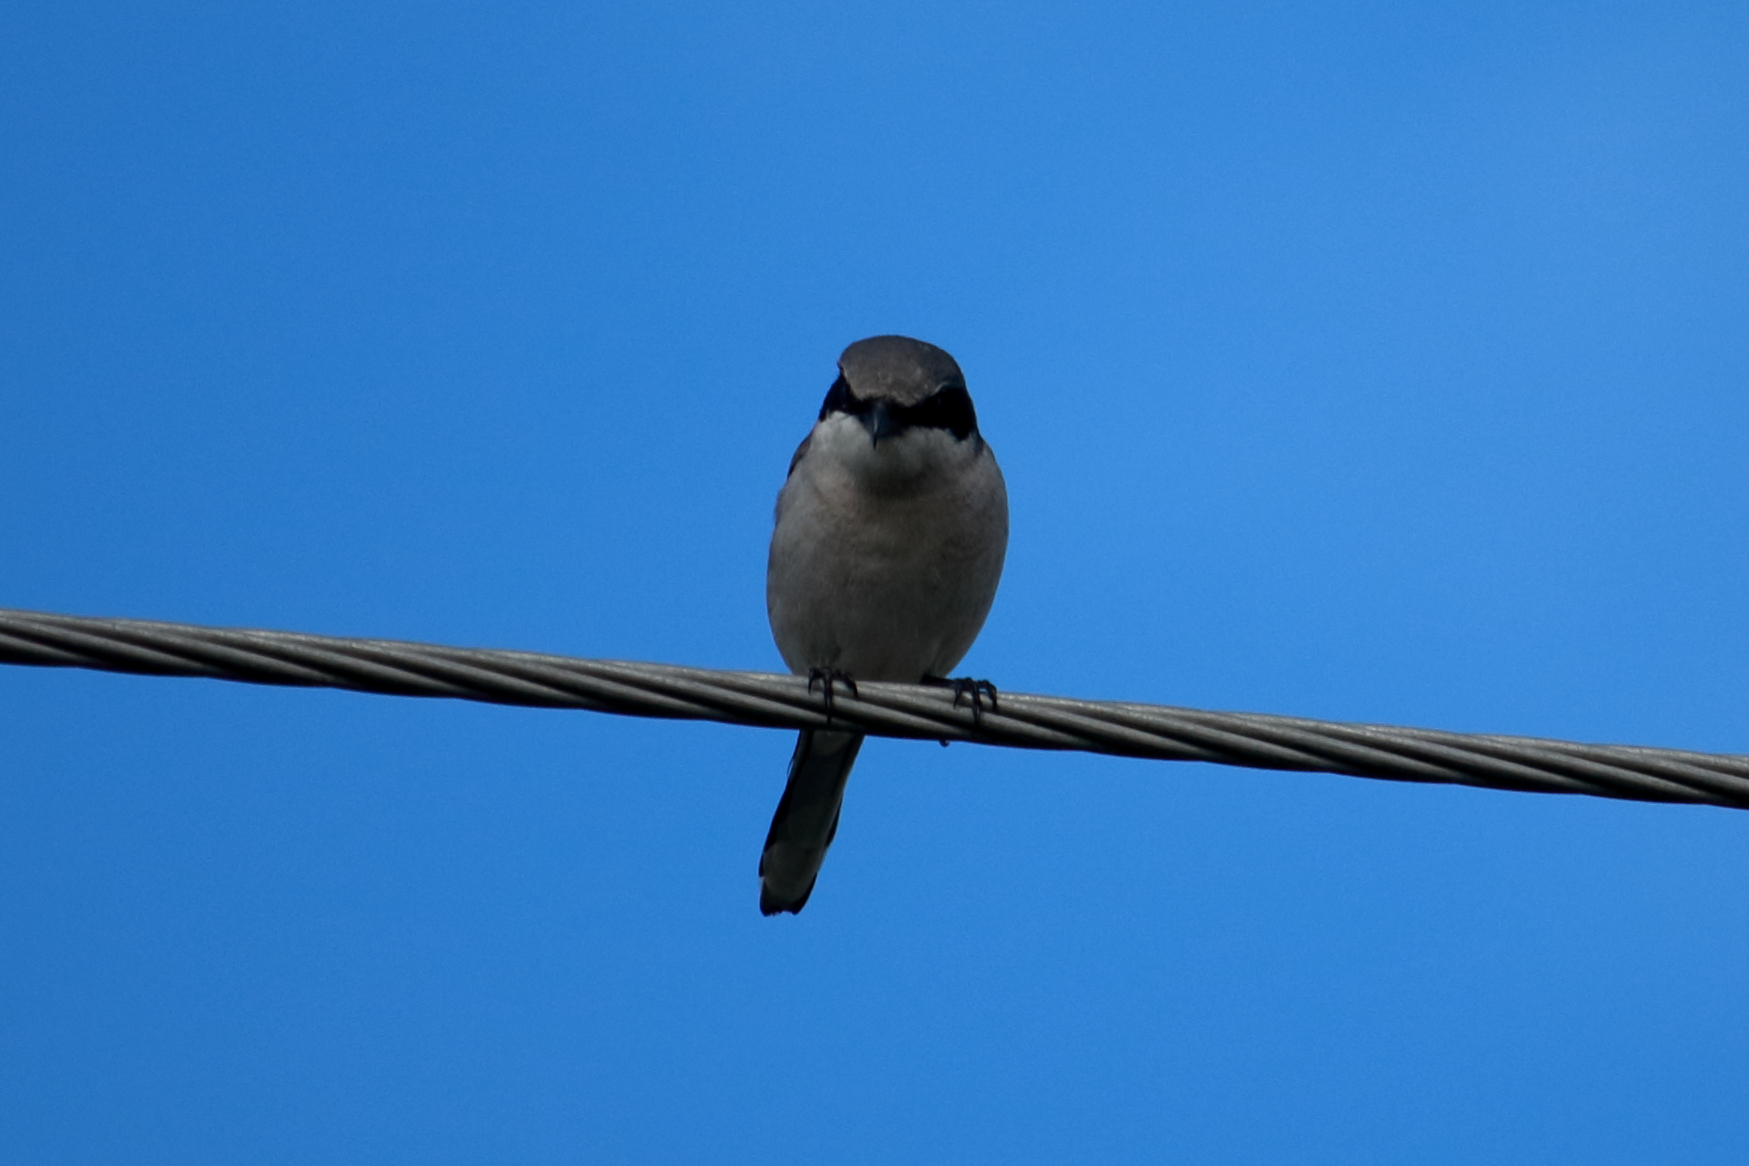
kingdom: Animalia
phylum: Chordata
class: Aves
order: Passeriformes
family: Laniidae
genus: Lanius
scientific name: Lanius ludovicianus
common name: Loggerhead shrike
